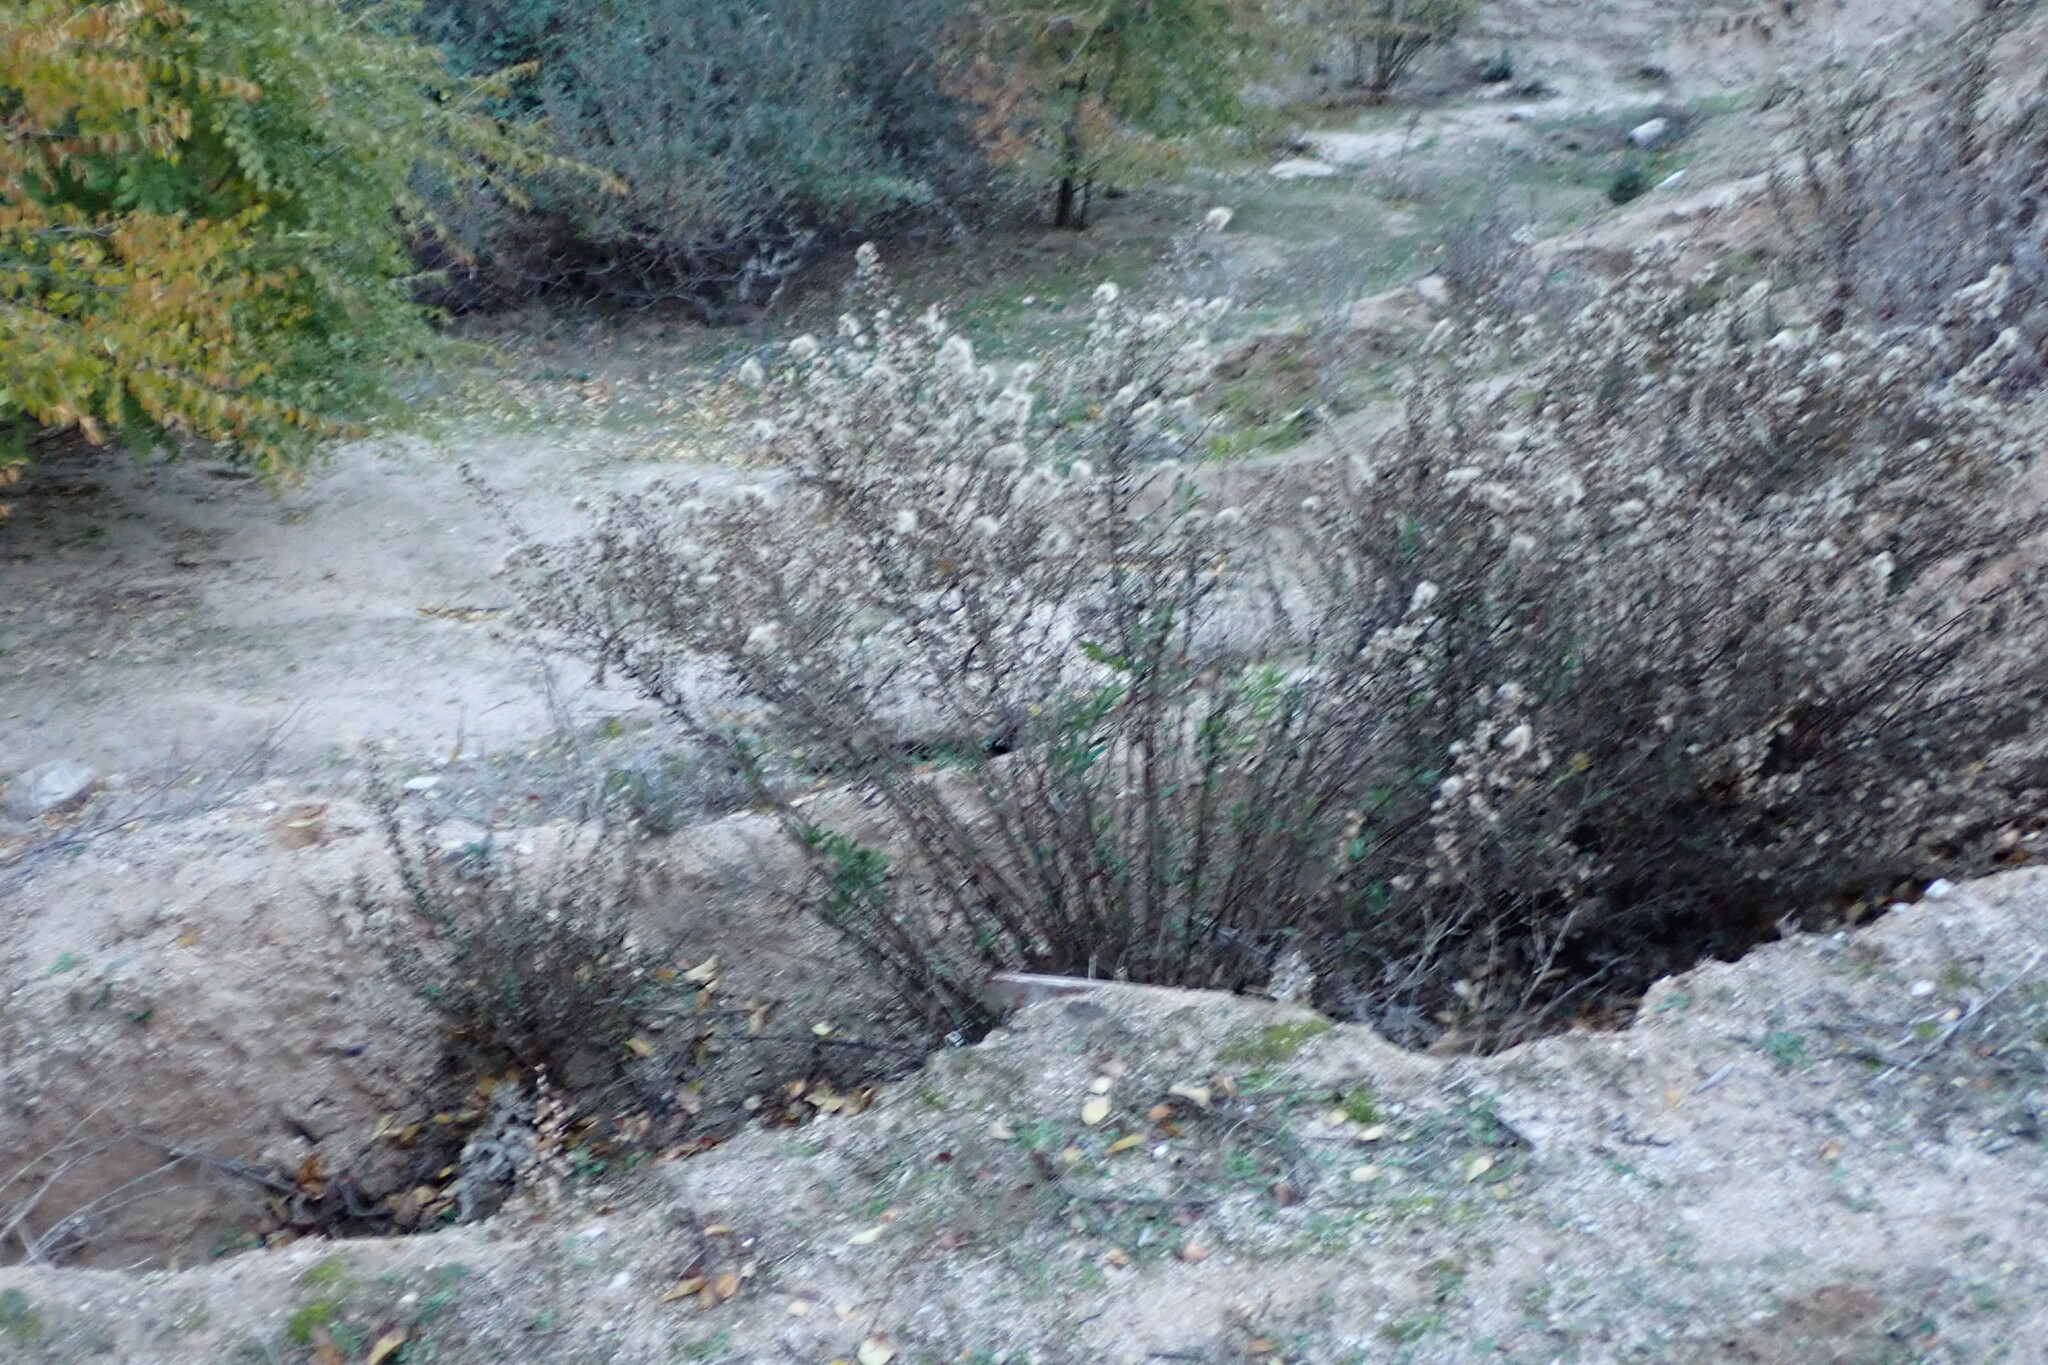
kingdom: Plantae
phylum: Tracheophyta
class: Magnoliopsida
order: Asterales
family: Asteraceae
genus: Dittrichia
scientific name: Dittrichia viscosa
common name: Woody fleabane
